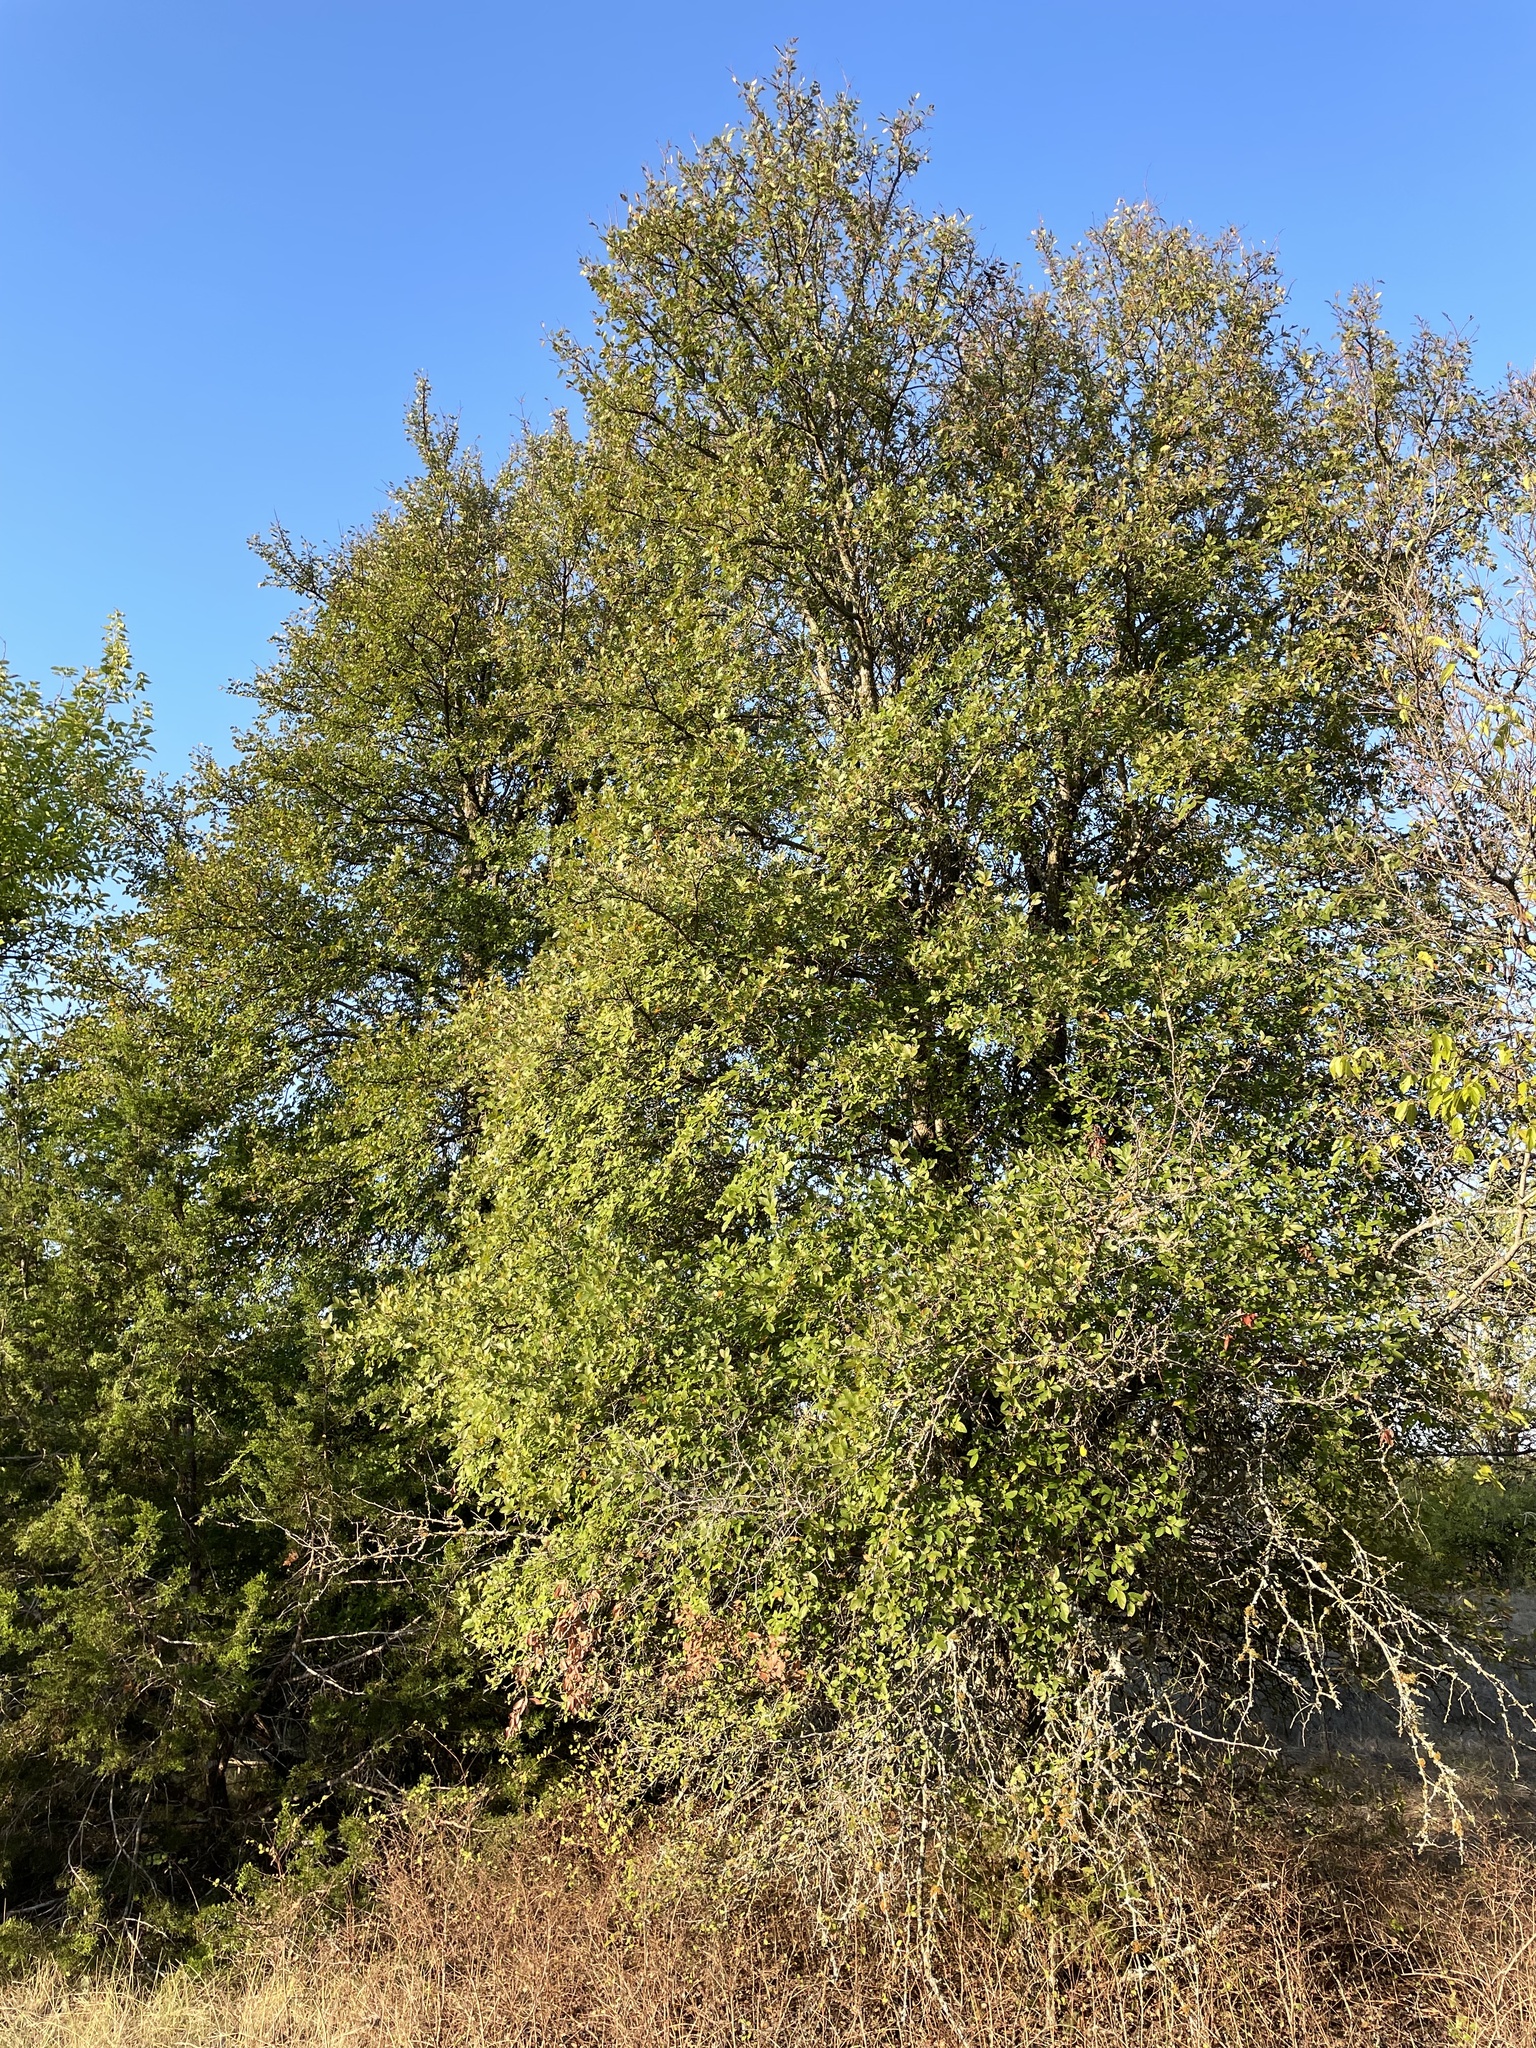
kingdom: Plantae
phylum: Tracheophyta
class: Magnoliopsida
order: Rosales
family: Ulmaceae
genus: Ulmus
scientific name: Ulmus crassifolia
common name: Basket elm
